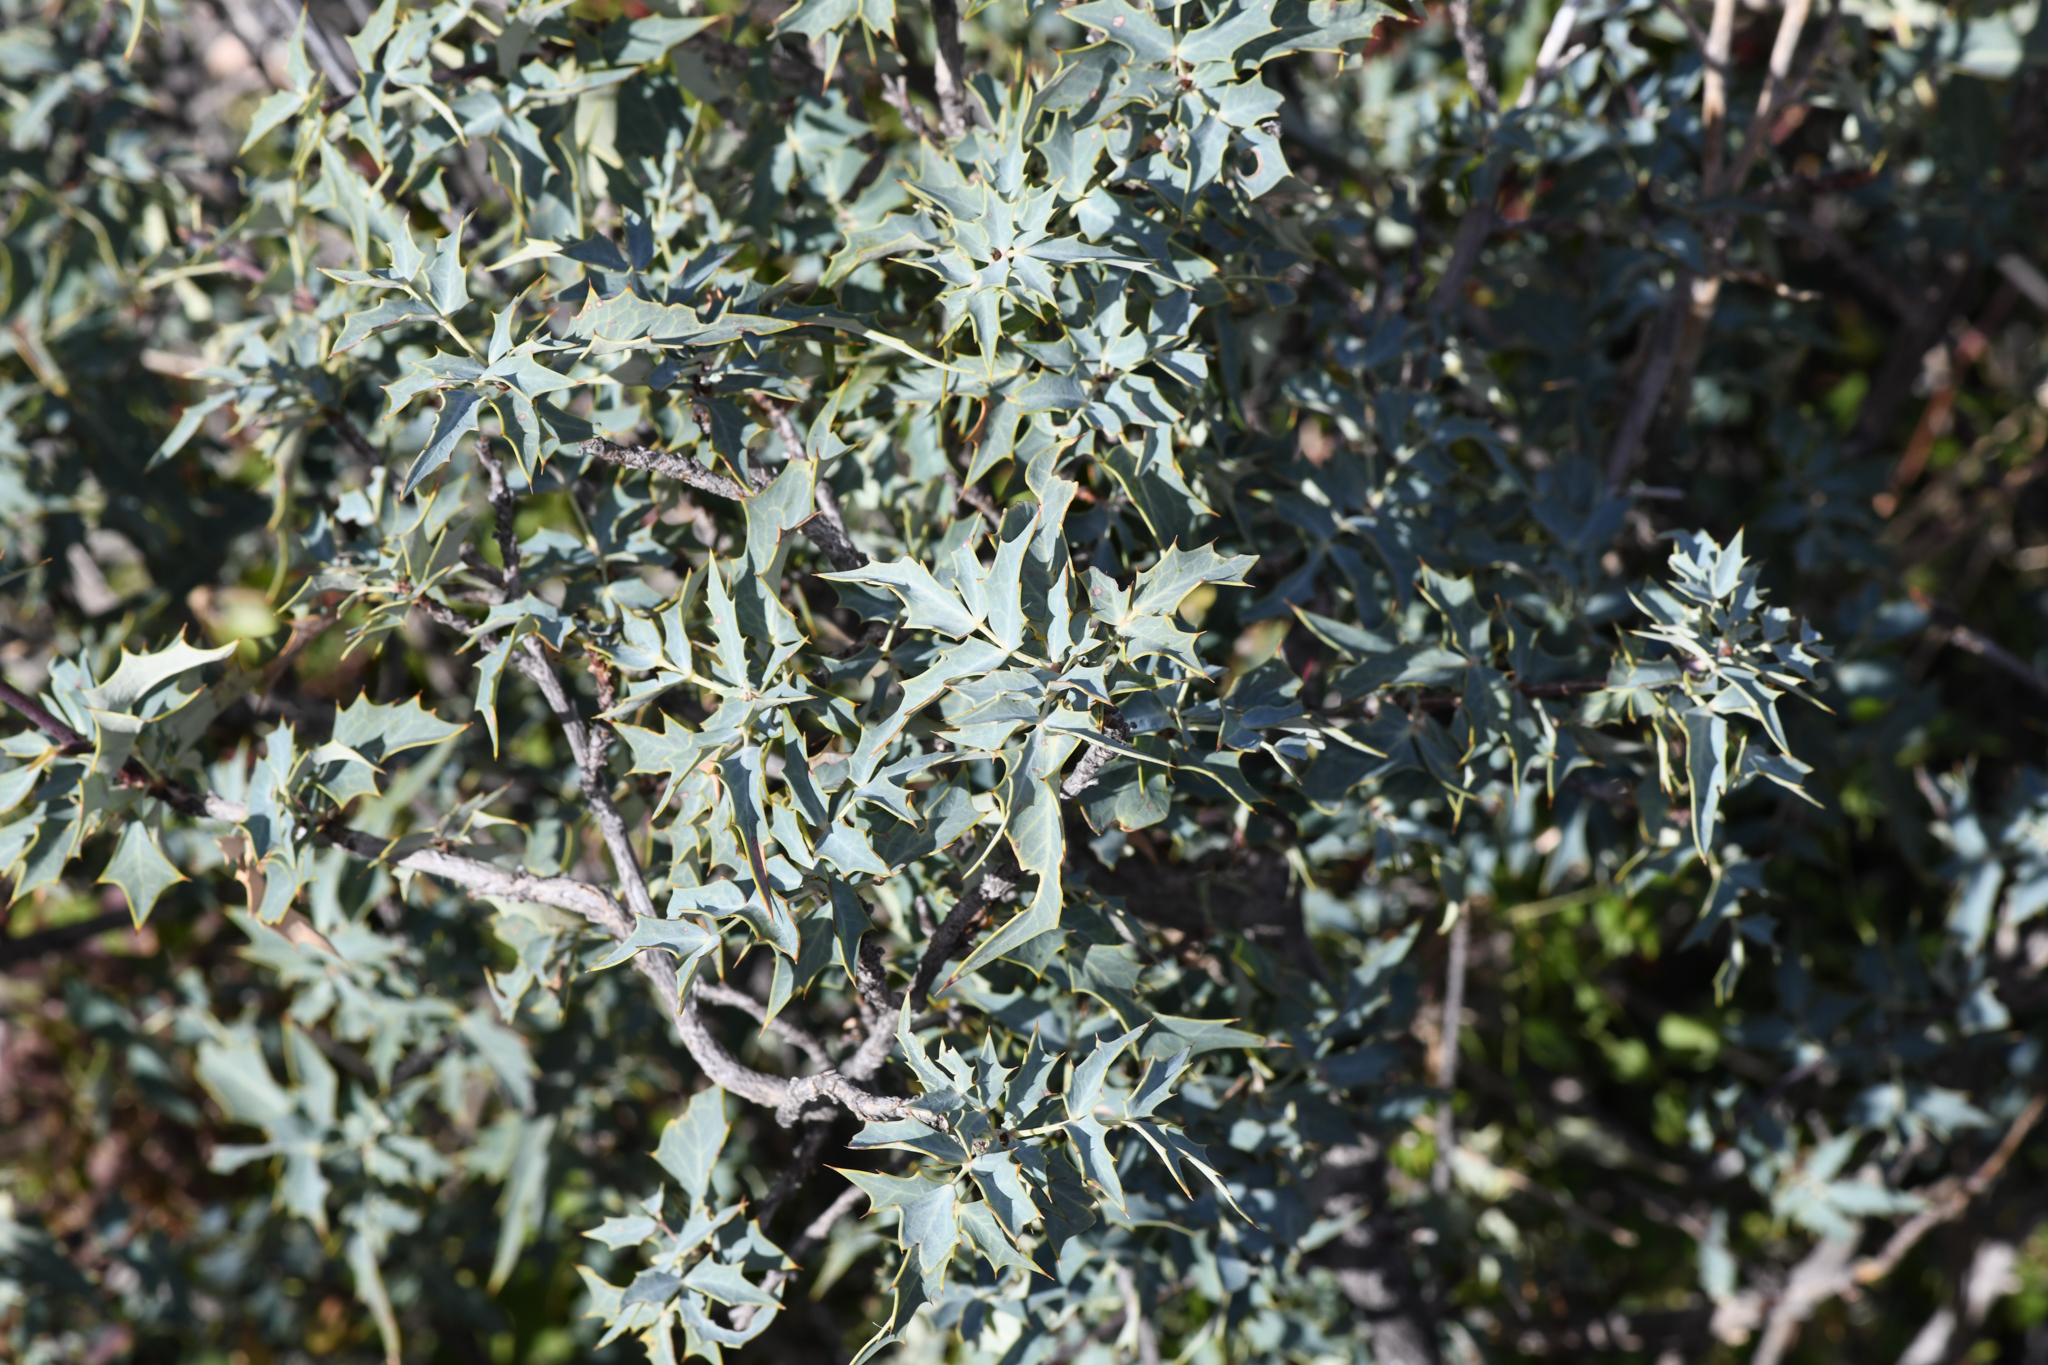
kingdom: Plantae
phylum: Tracheophyta
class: Magnoliopsida
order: Ranunculales
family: Berberidaceae
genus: Alloberberis
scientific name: Alloberberis fremontii
